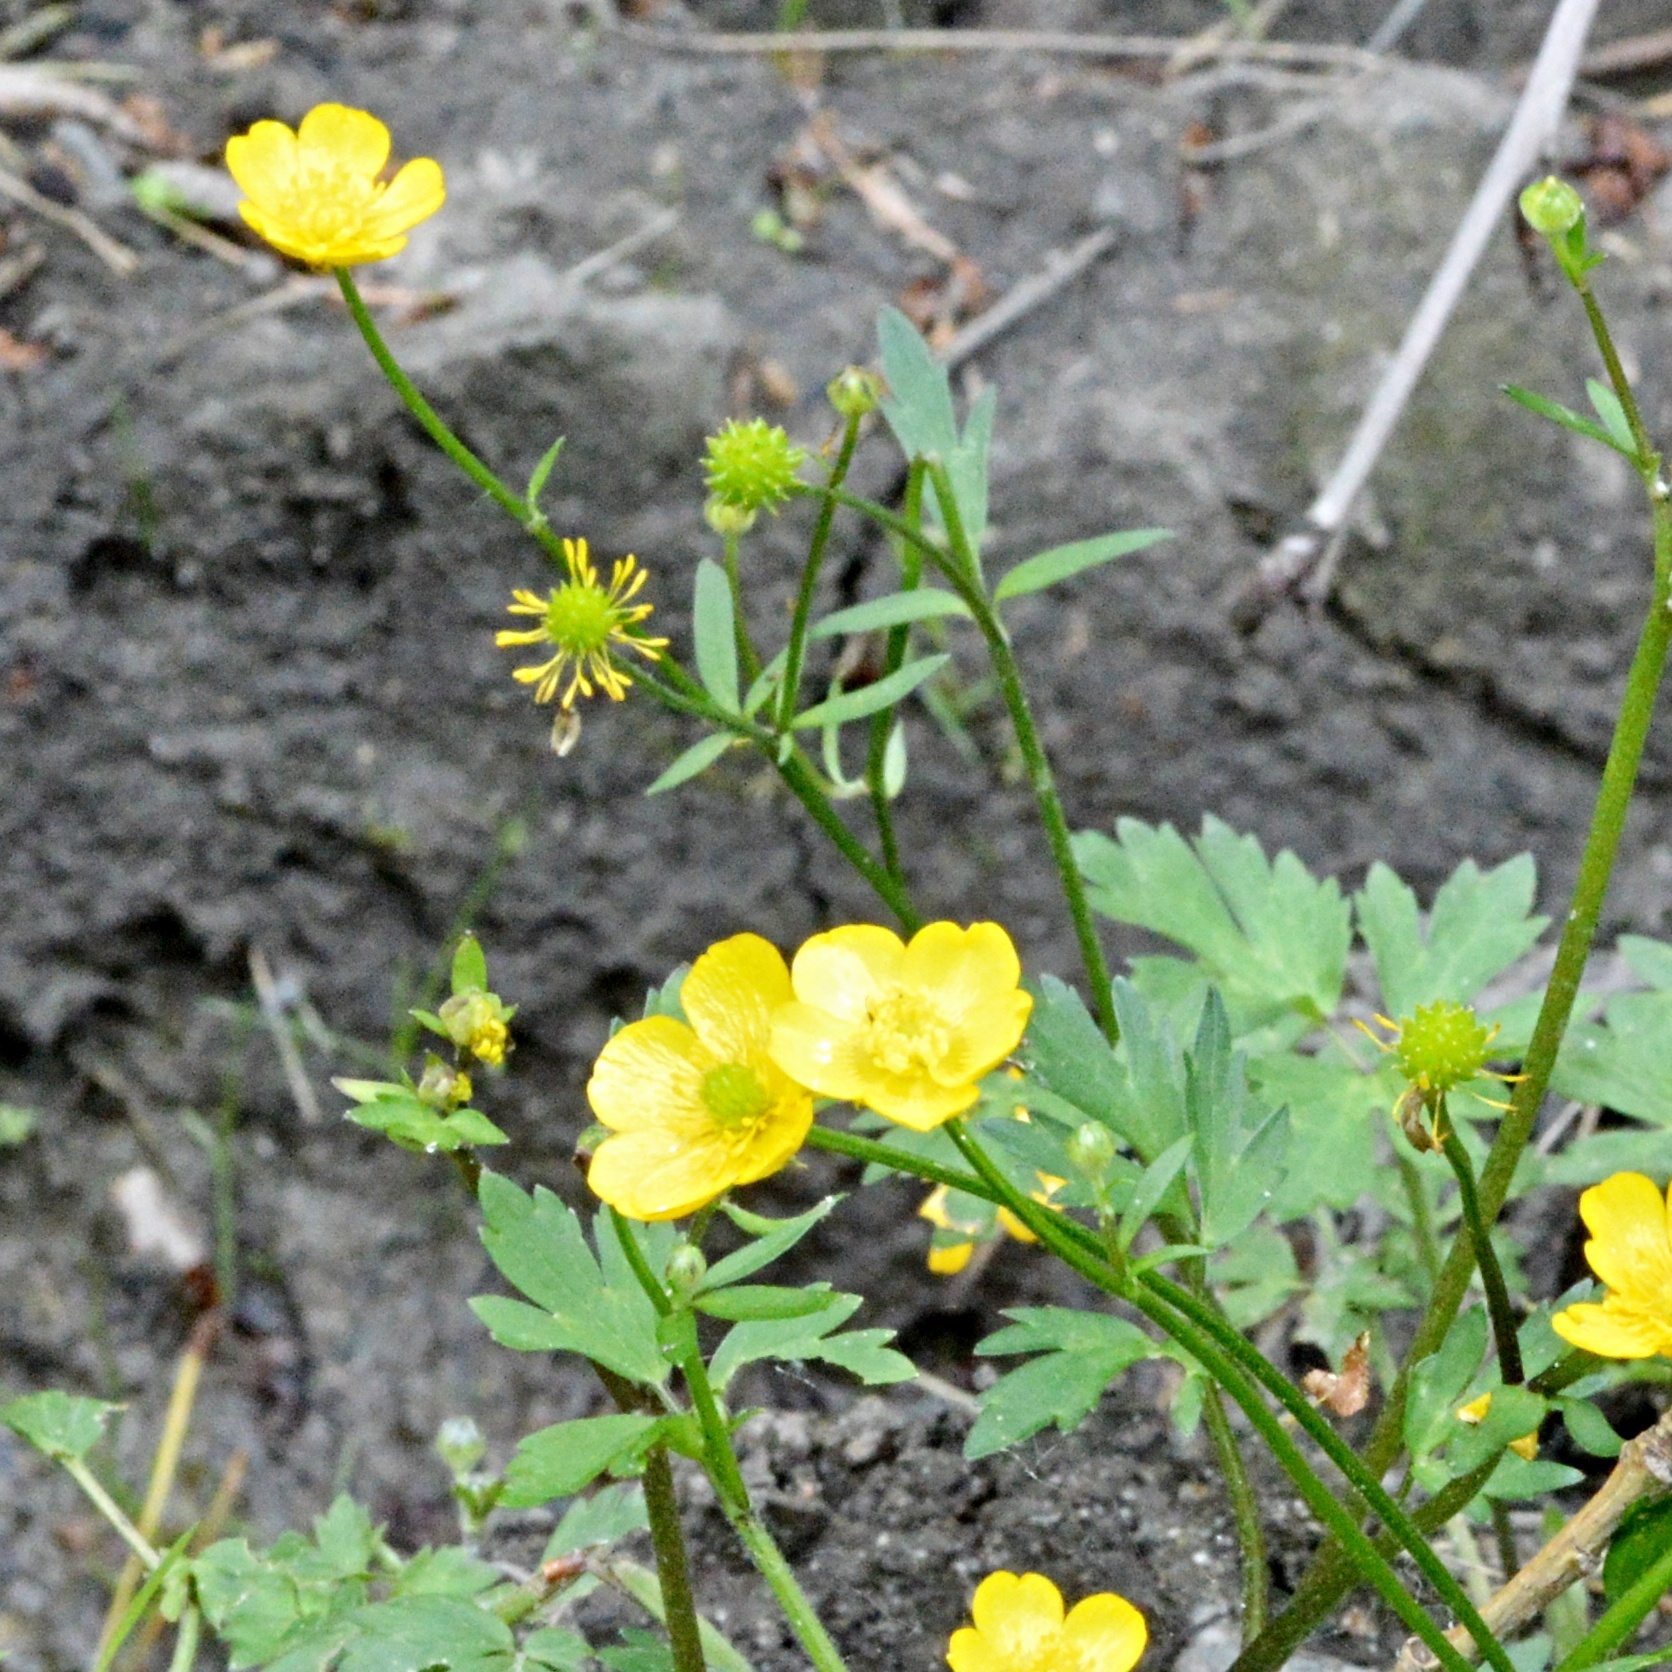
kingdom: Plantae
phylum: Tracheophyta
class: Magnoliopsida
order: Ranunculales
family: Ranunculaceae
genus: Ranunculus
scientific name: Ranunculus repens
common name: Creeping buttercup
